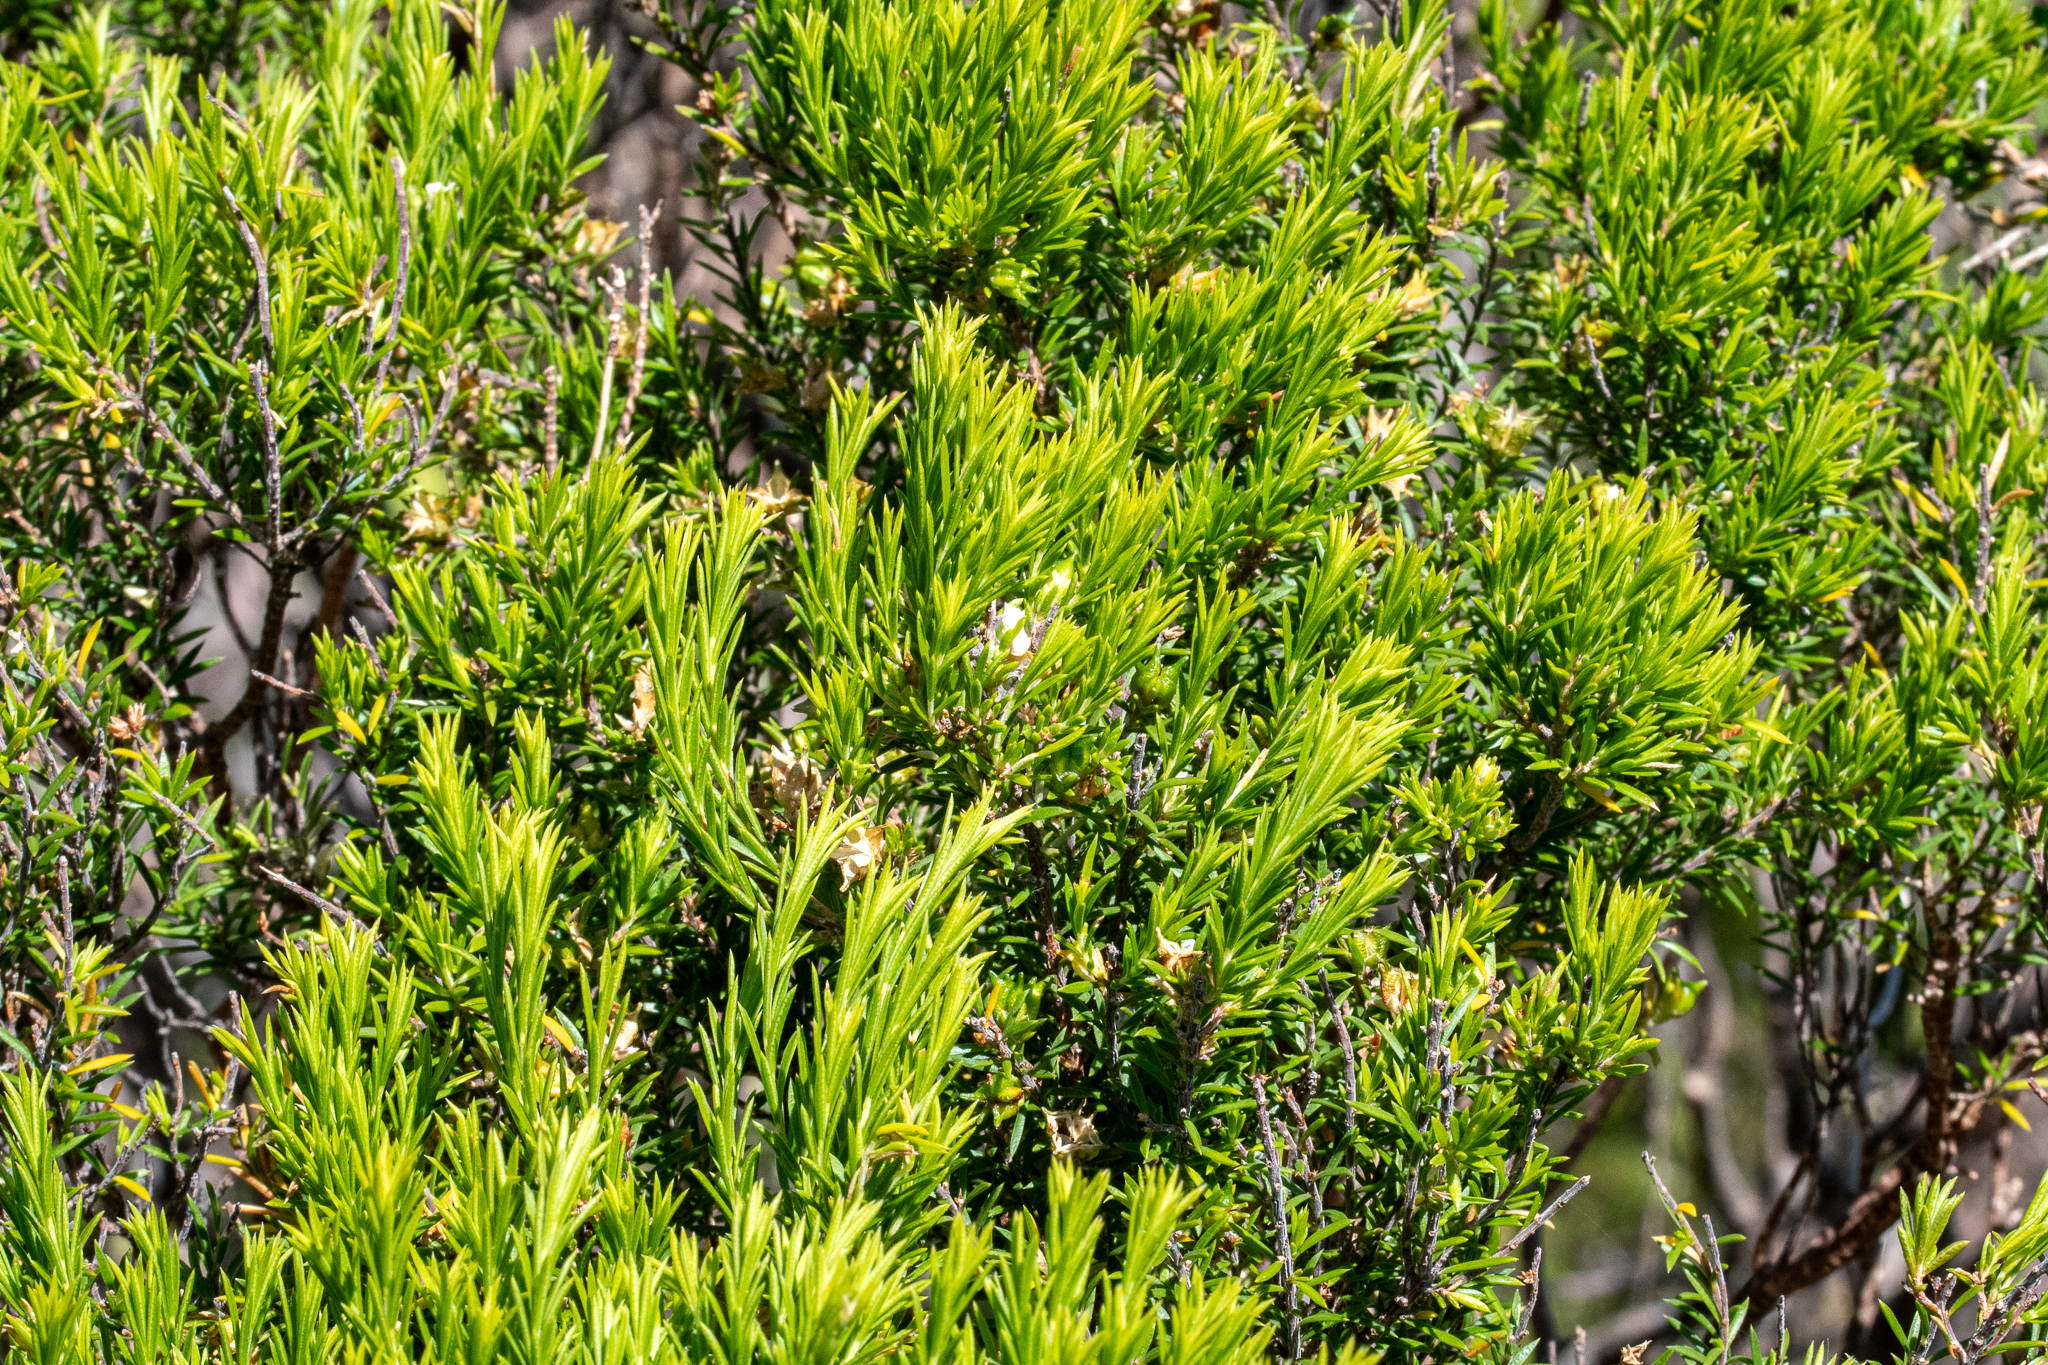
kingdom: Plantae
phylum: Tracheophyta
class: Magnoliopsida
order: Sapindales
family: Rutaceae
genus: Coleonema
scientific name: Coleonema album
